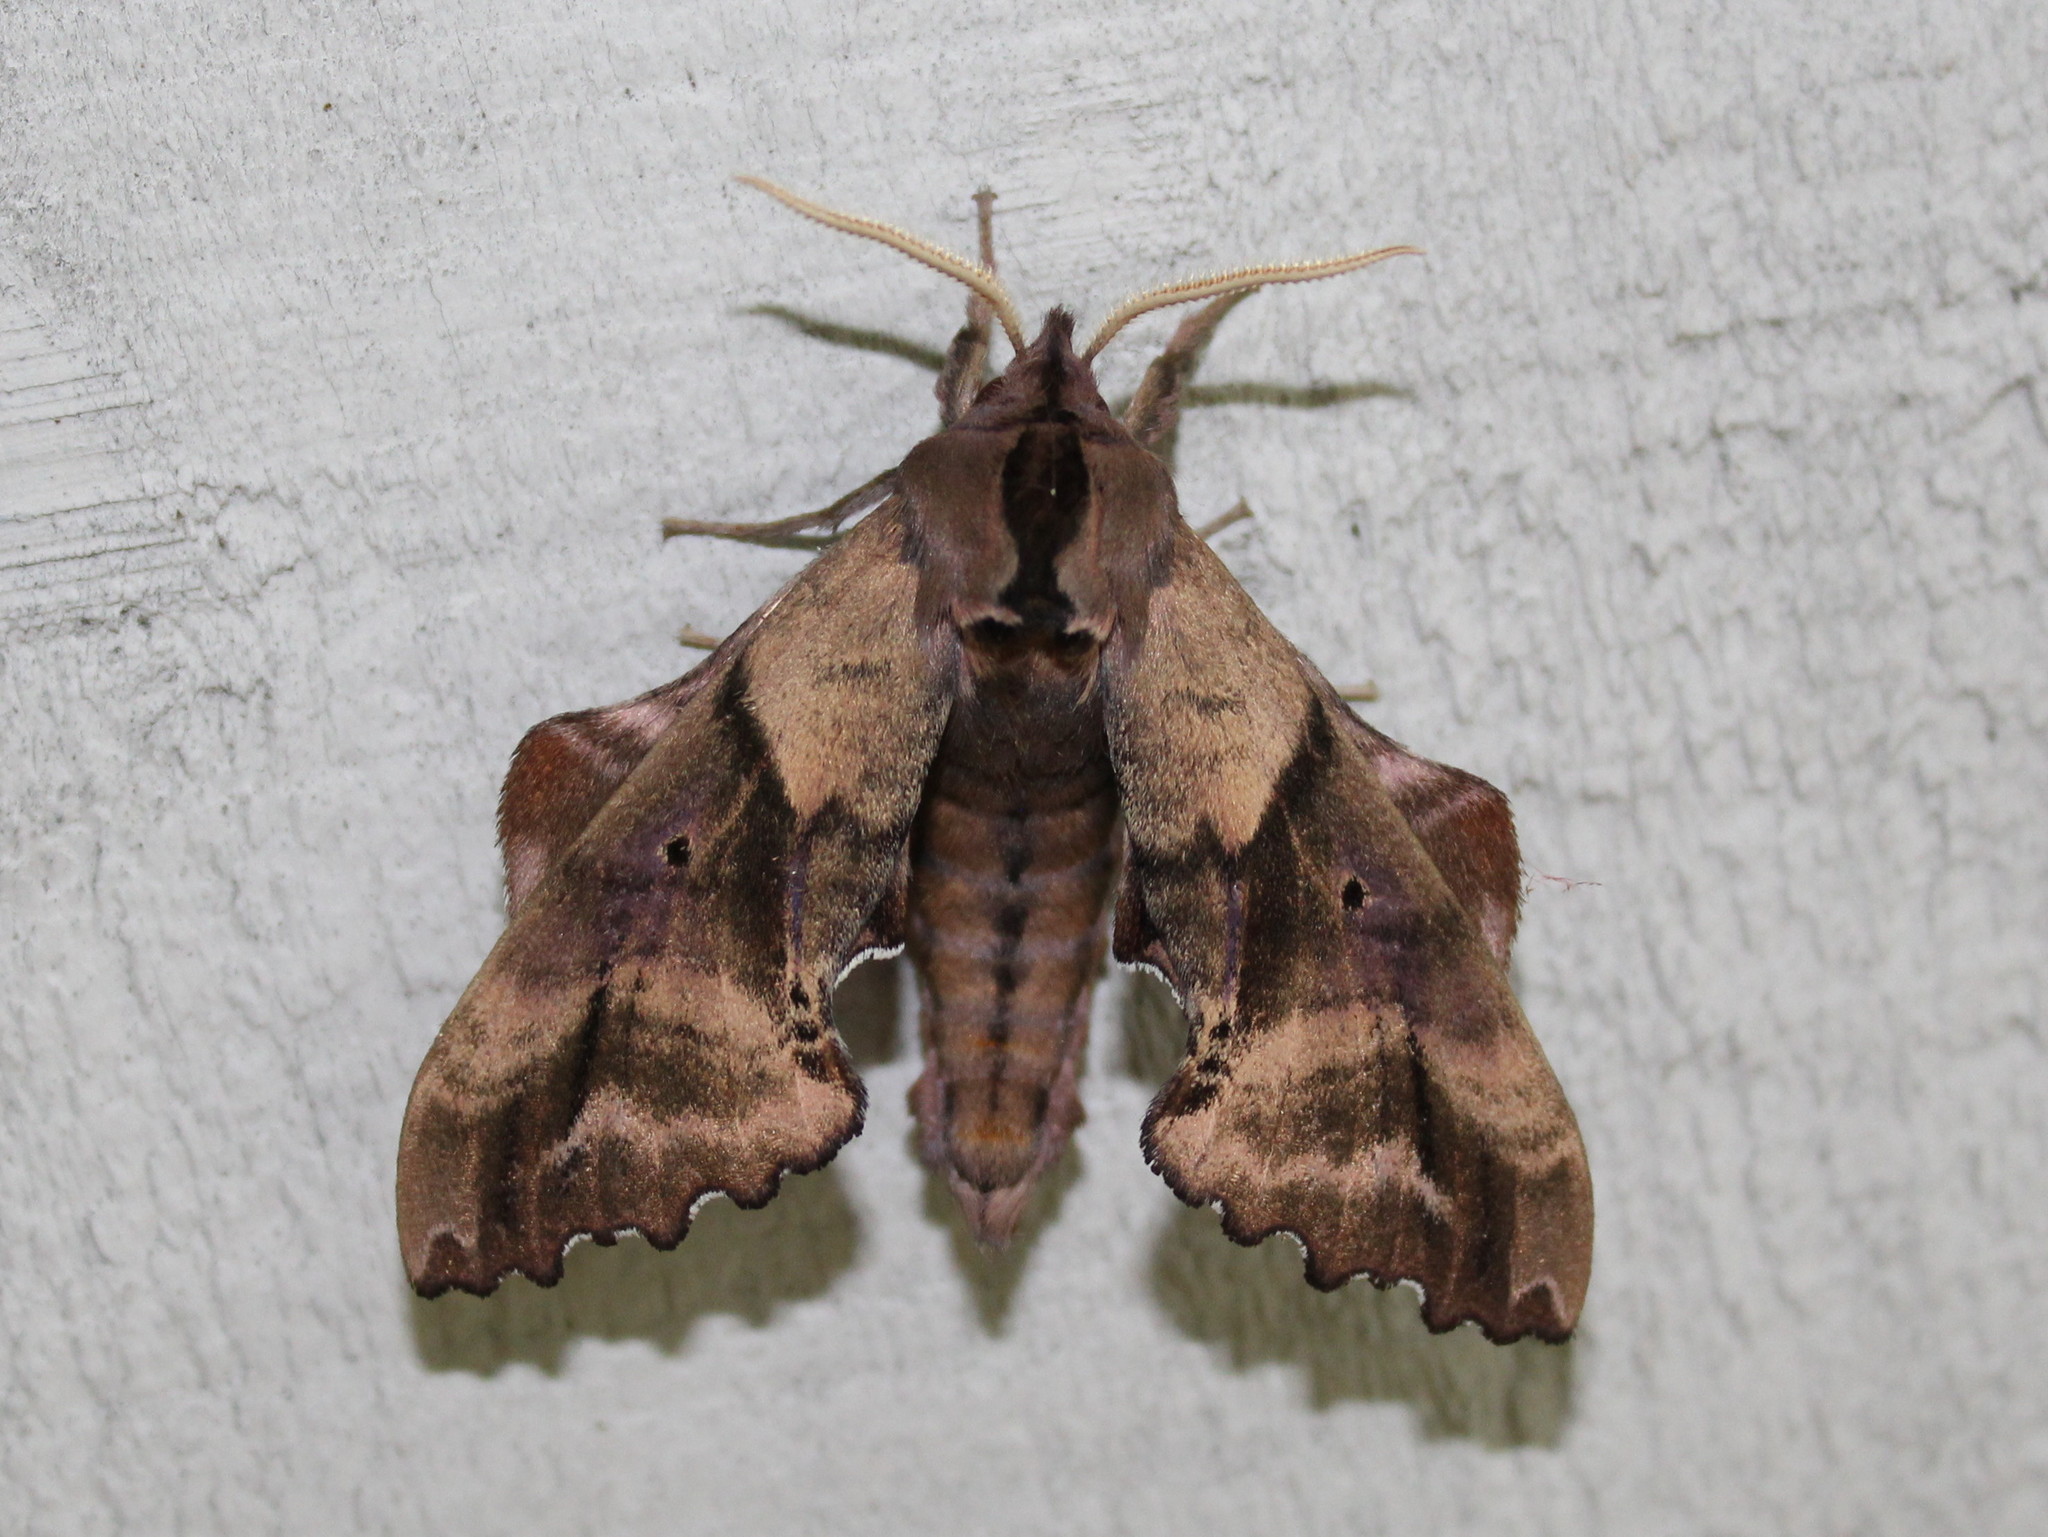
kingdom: Animalia
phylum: Arthropoda
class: Insecta
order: Lepidoptera
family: Sphingidae
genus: Paonias
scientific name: Paonias excaecata
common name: Blind-eyed sphinx
